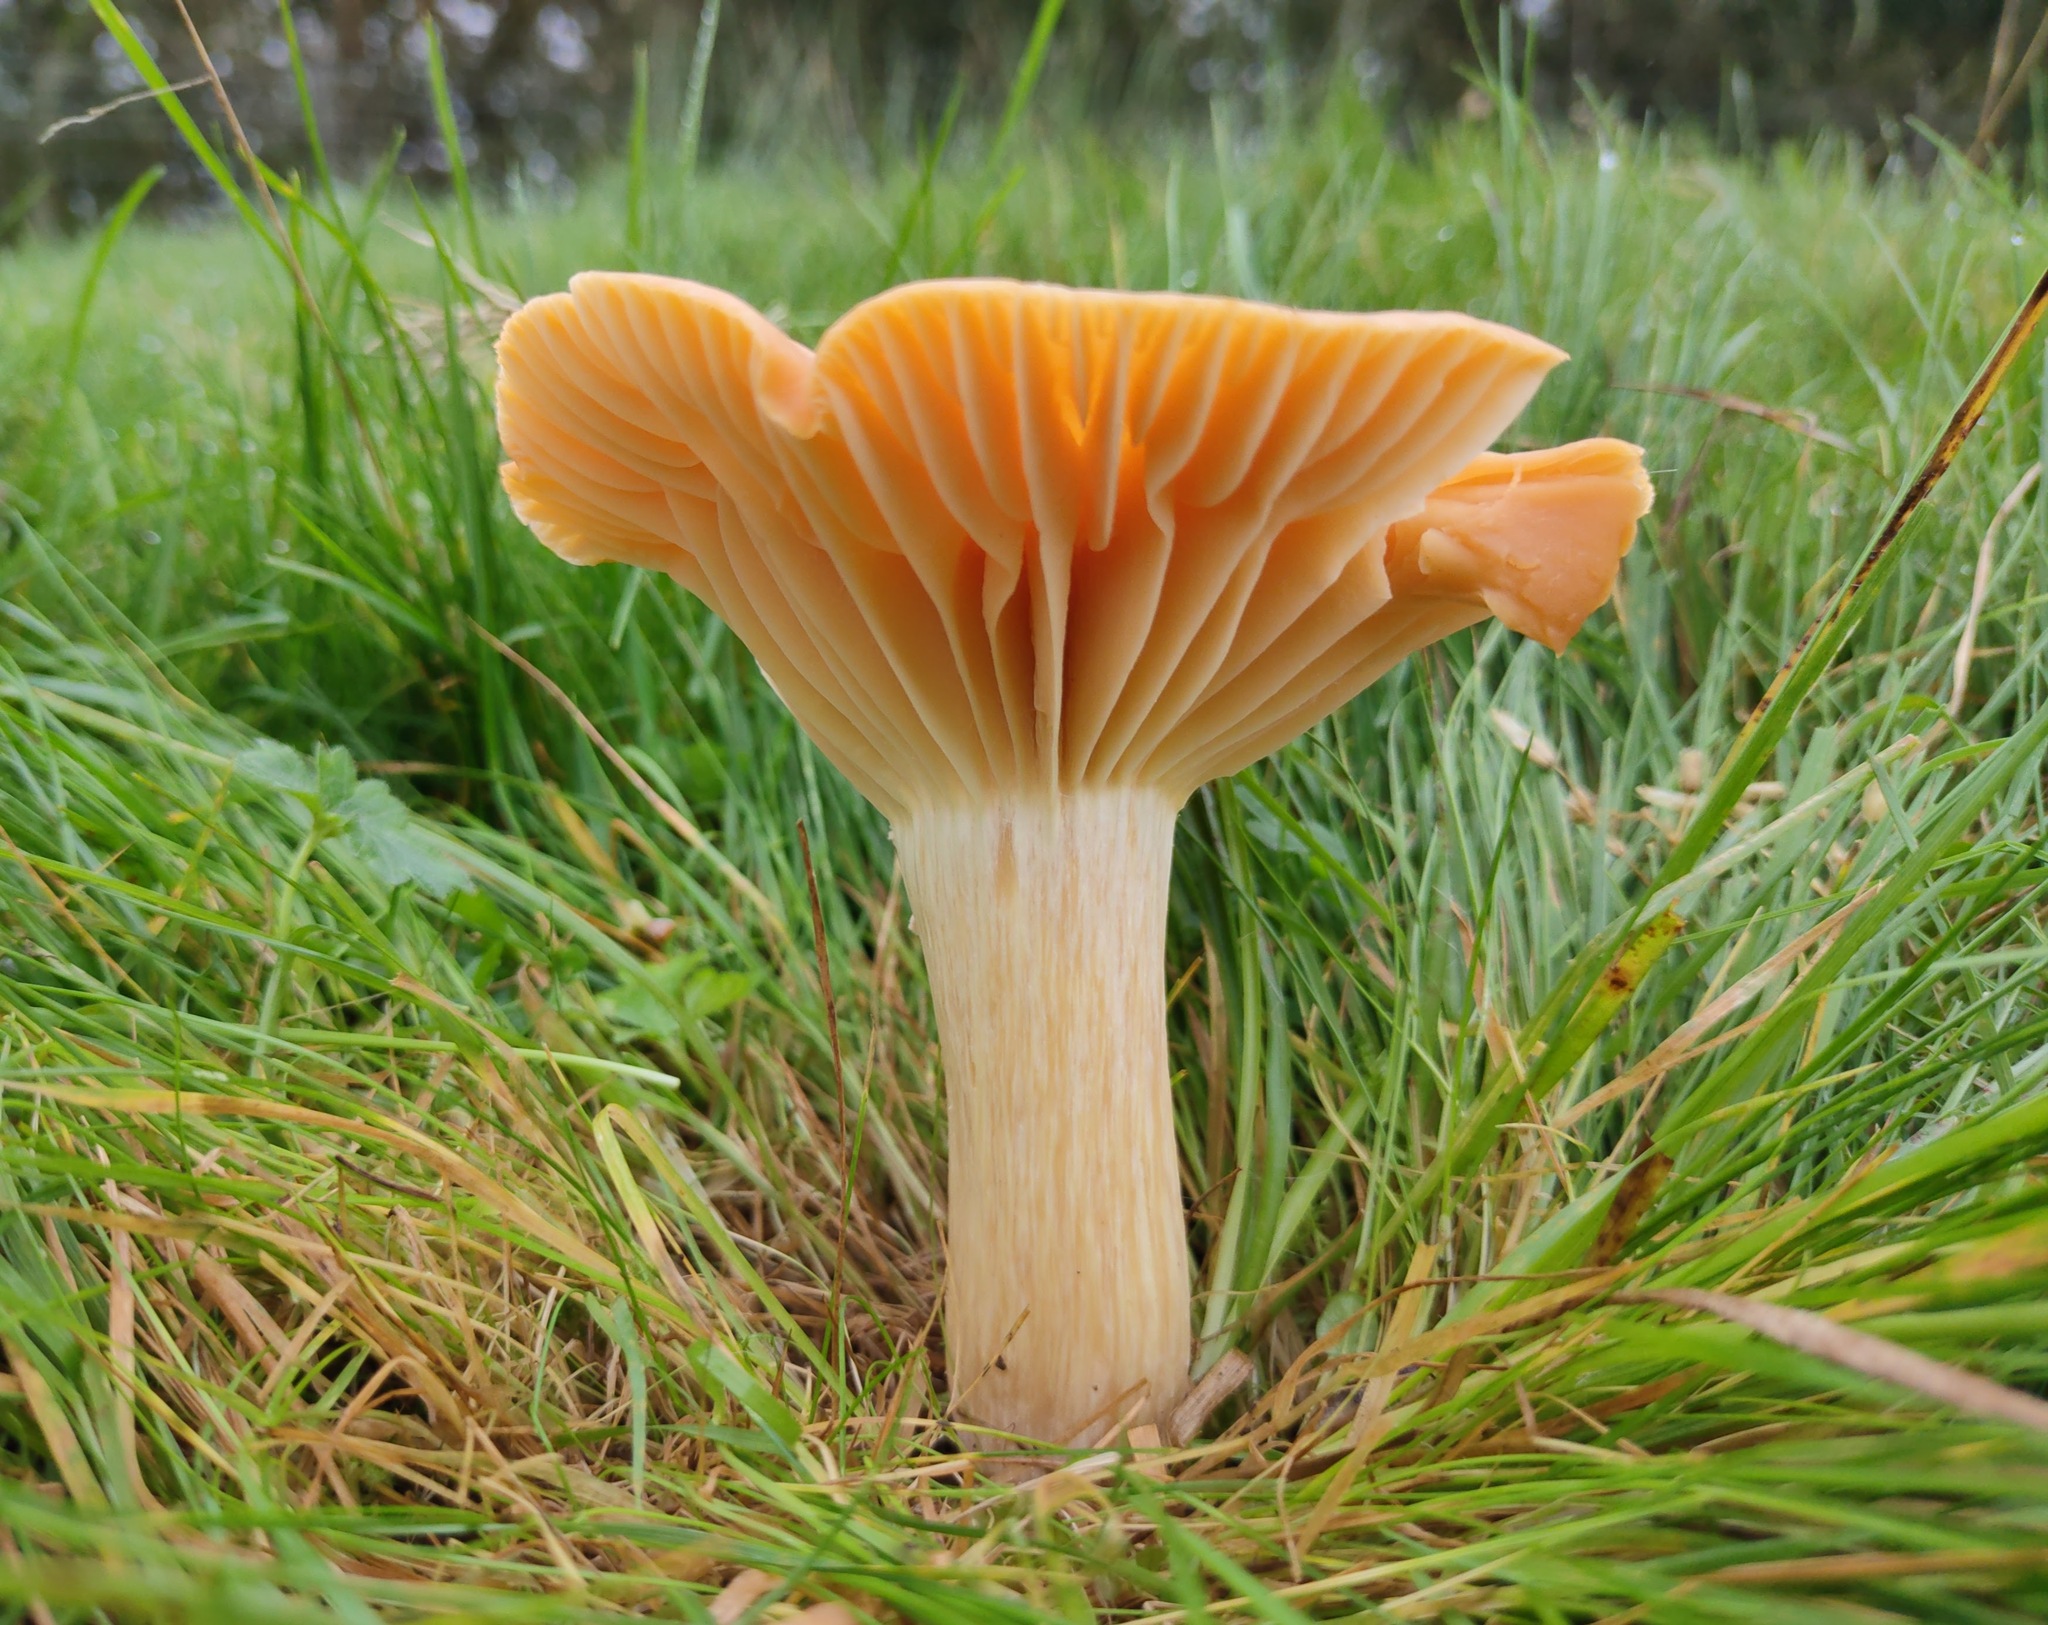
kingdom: Fungi
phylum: Basidiomycota
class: Agaricomycetes
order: Agaricales
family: Hygrophoraceae
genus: Cuphophyllus
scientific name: Cuphophyllus pratensis
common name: Meadow waxcap
